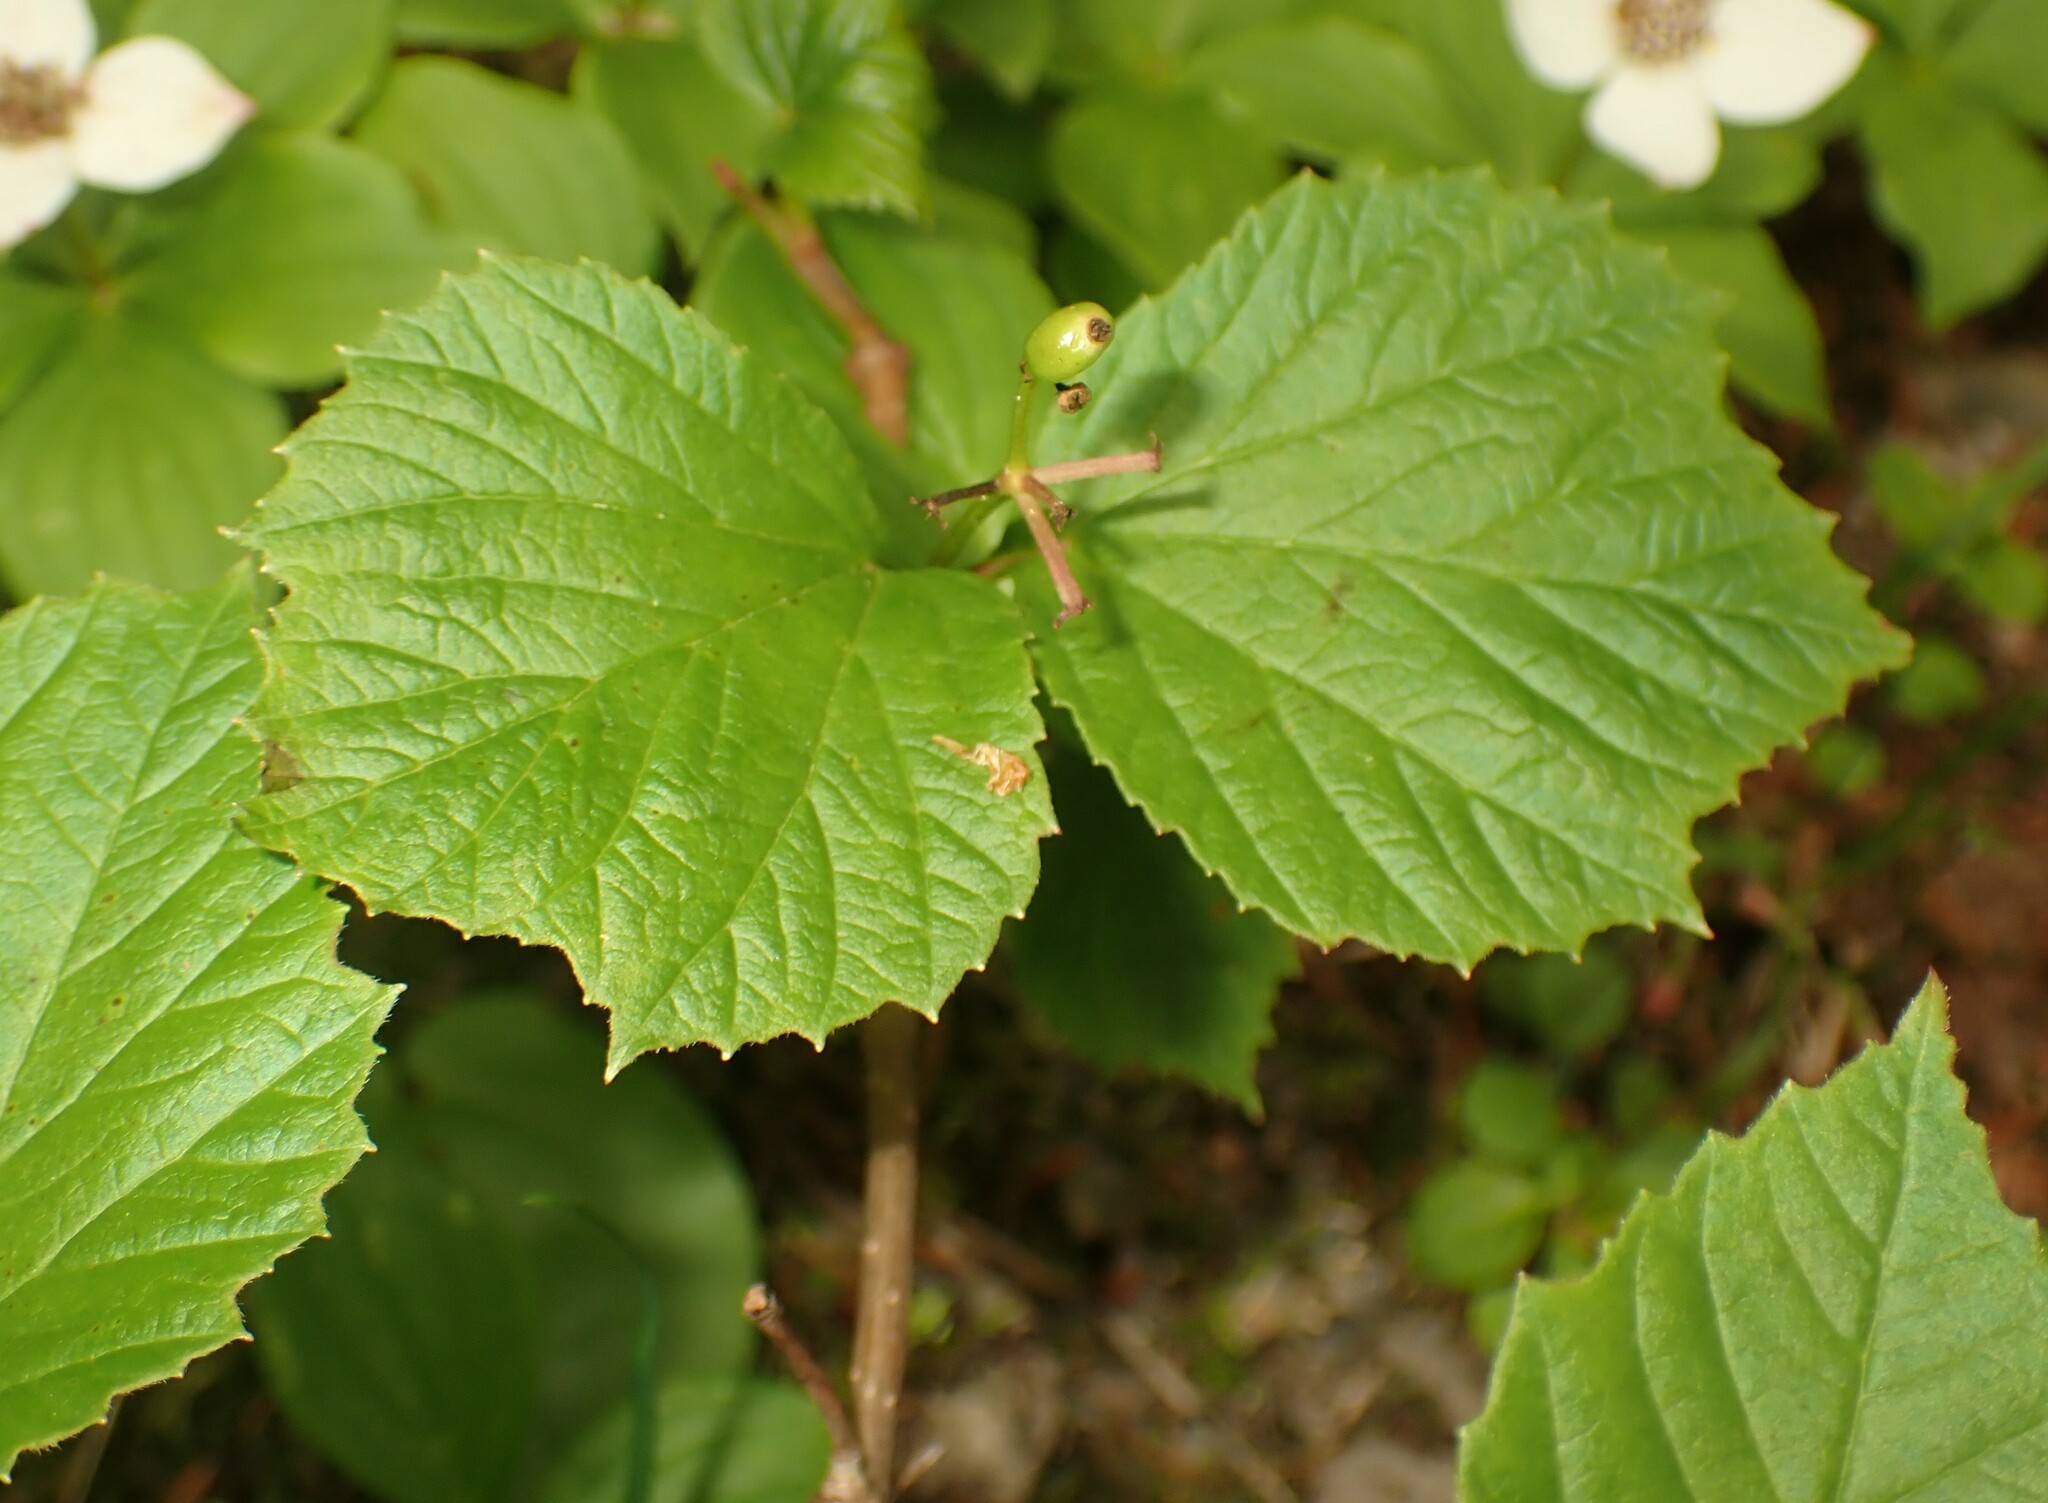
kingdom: Plantae
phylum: Tracheophyta
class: Magnoliopsida
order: Dipsacales
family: Viburnaceae
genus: Viburnum
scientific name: Viburnum edule
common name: Mooseberry
